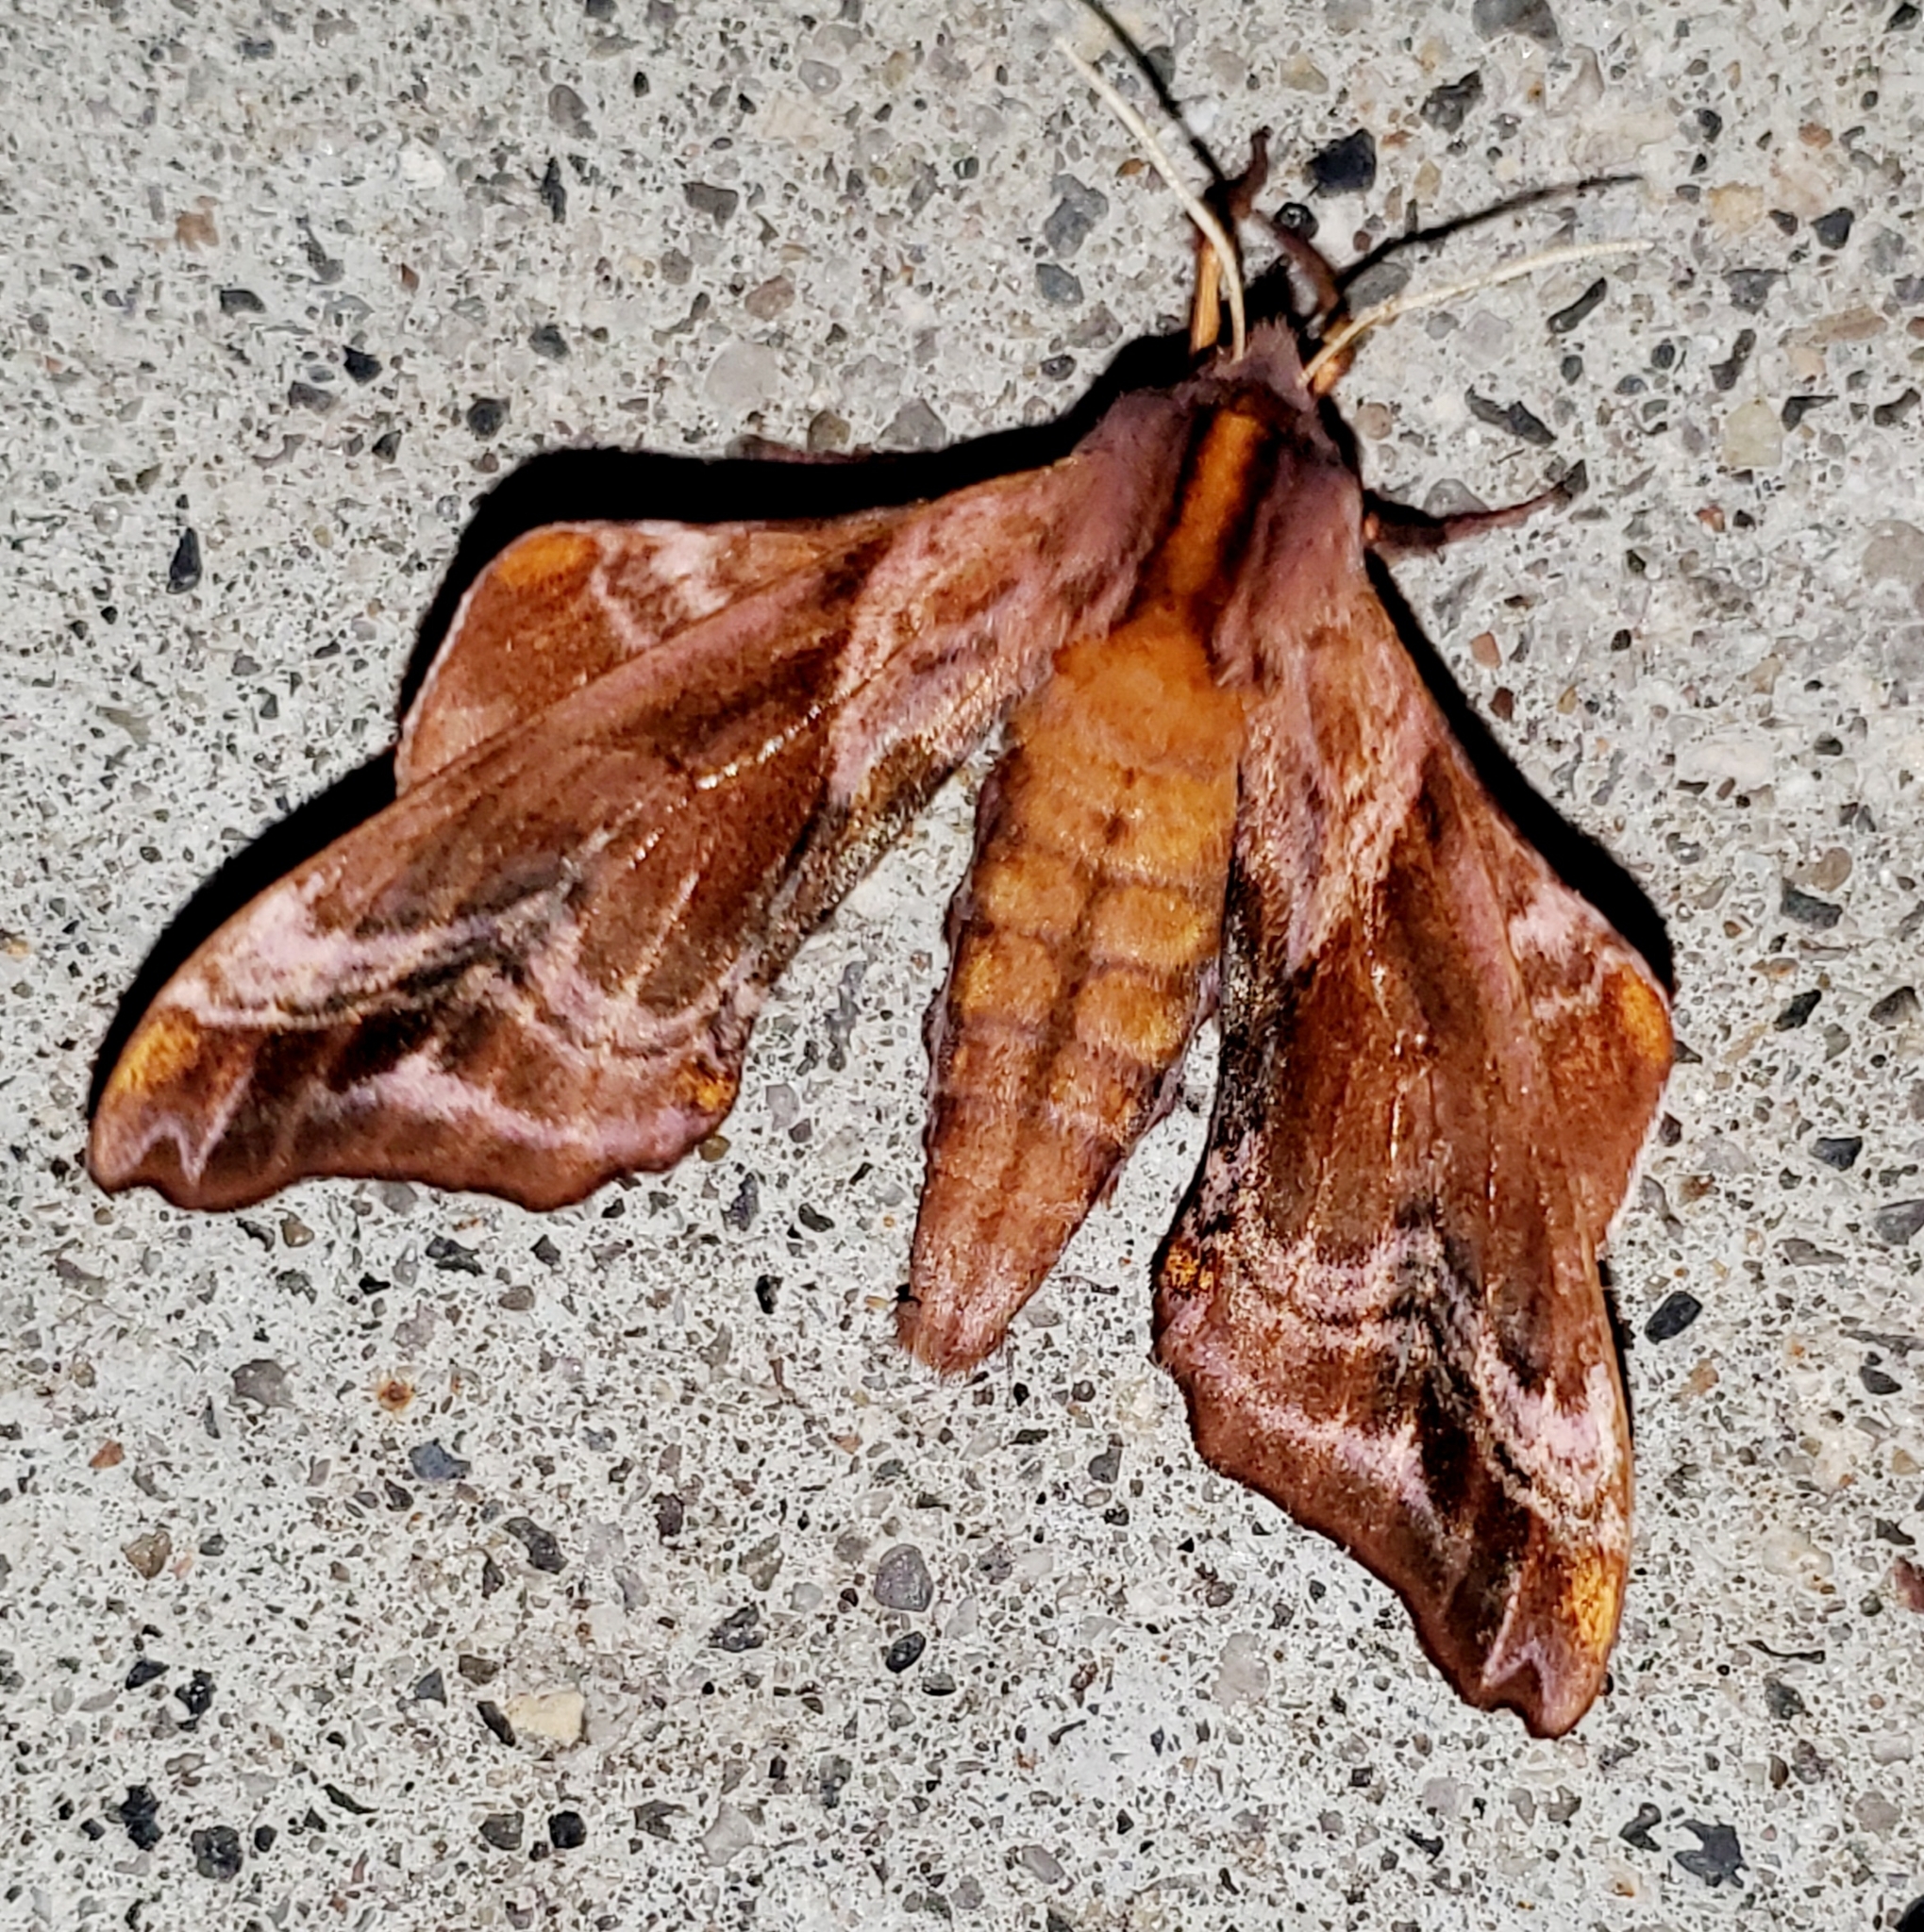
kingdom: Animalia
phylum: Arthropoda
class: Insecta
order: Lepidoptera
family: Sphingidae
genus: Paonias
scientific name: Paonias myops
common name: Small-eyed sphinx
